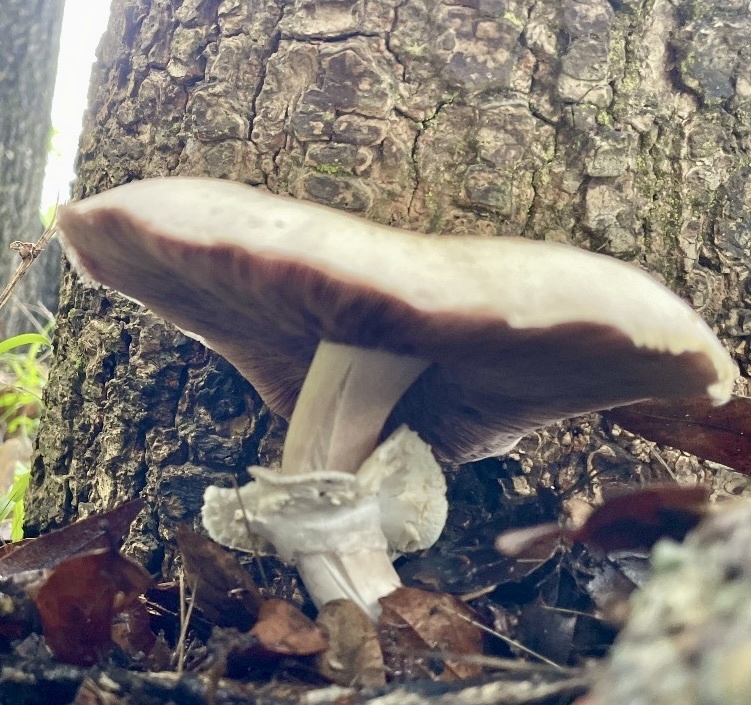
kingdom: Fungi
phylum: Basidiomycota
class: Agaricomycetes
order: Agaricales
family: Agaricaceae
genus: Agaricus
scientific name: Agaricus xanthodermus
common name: Yellow stainer
